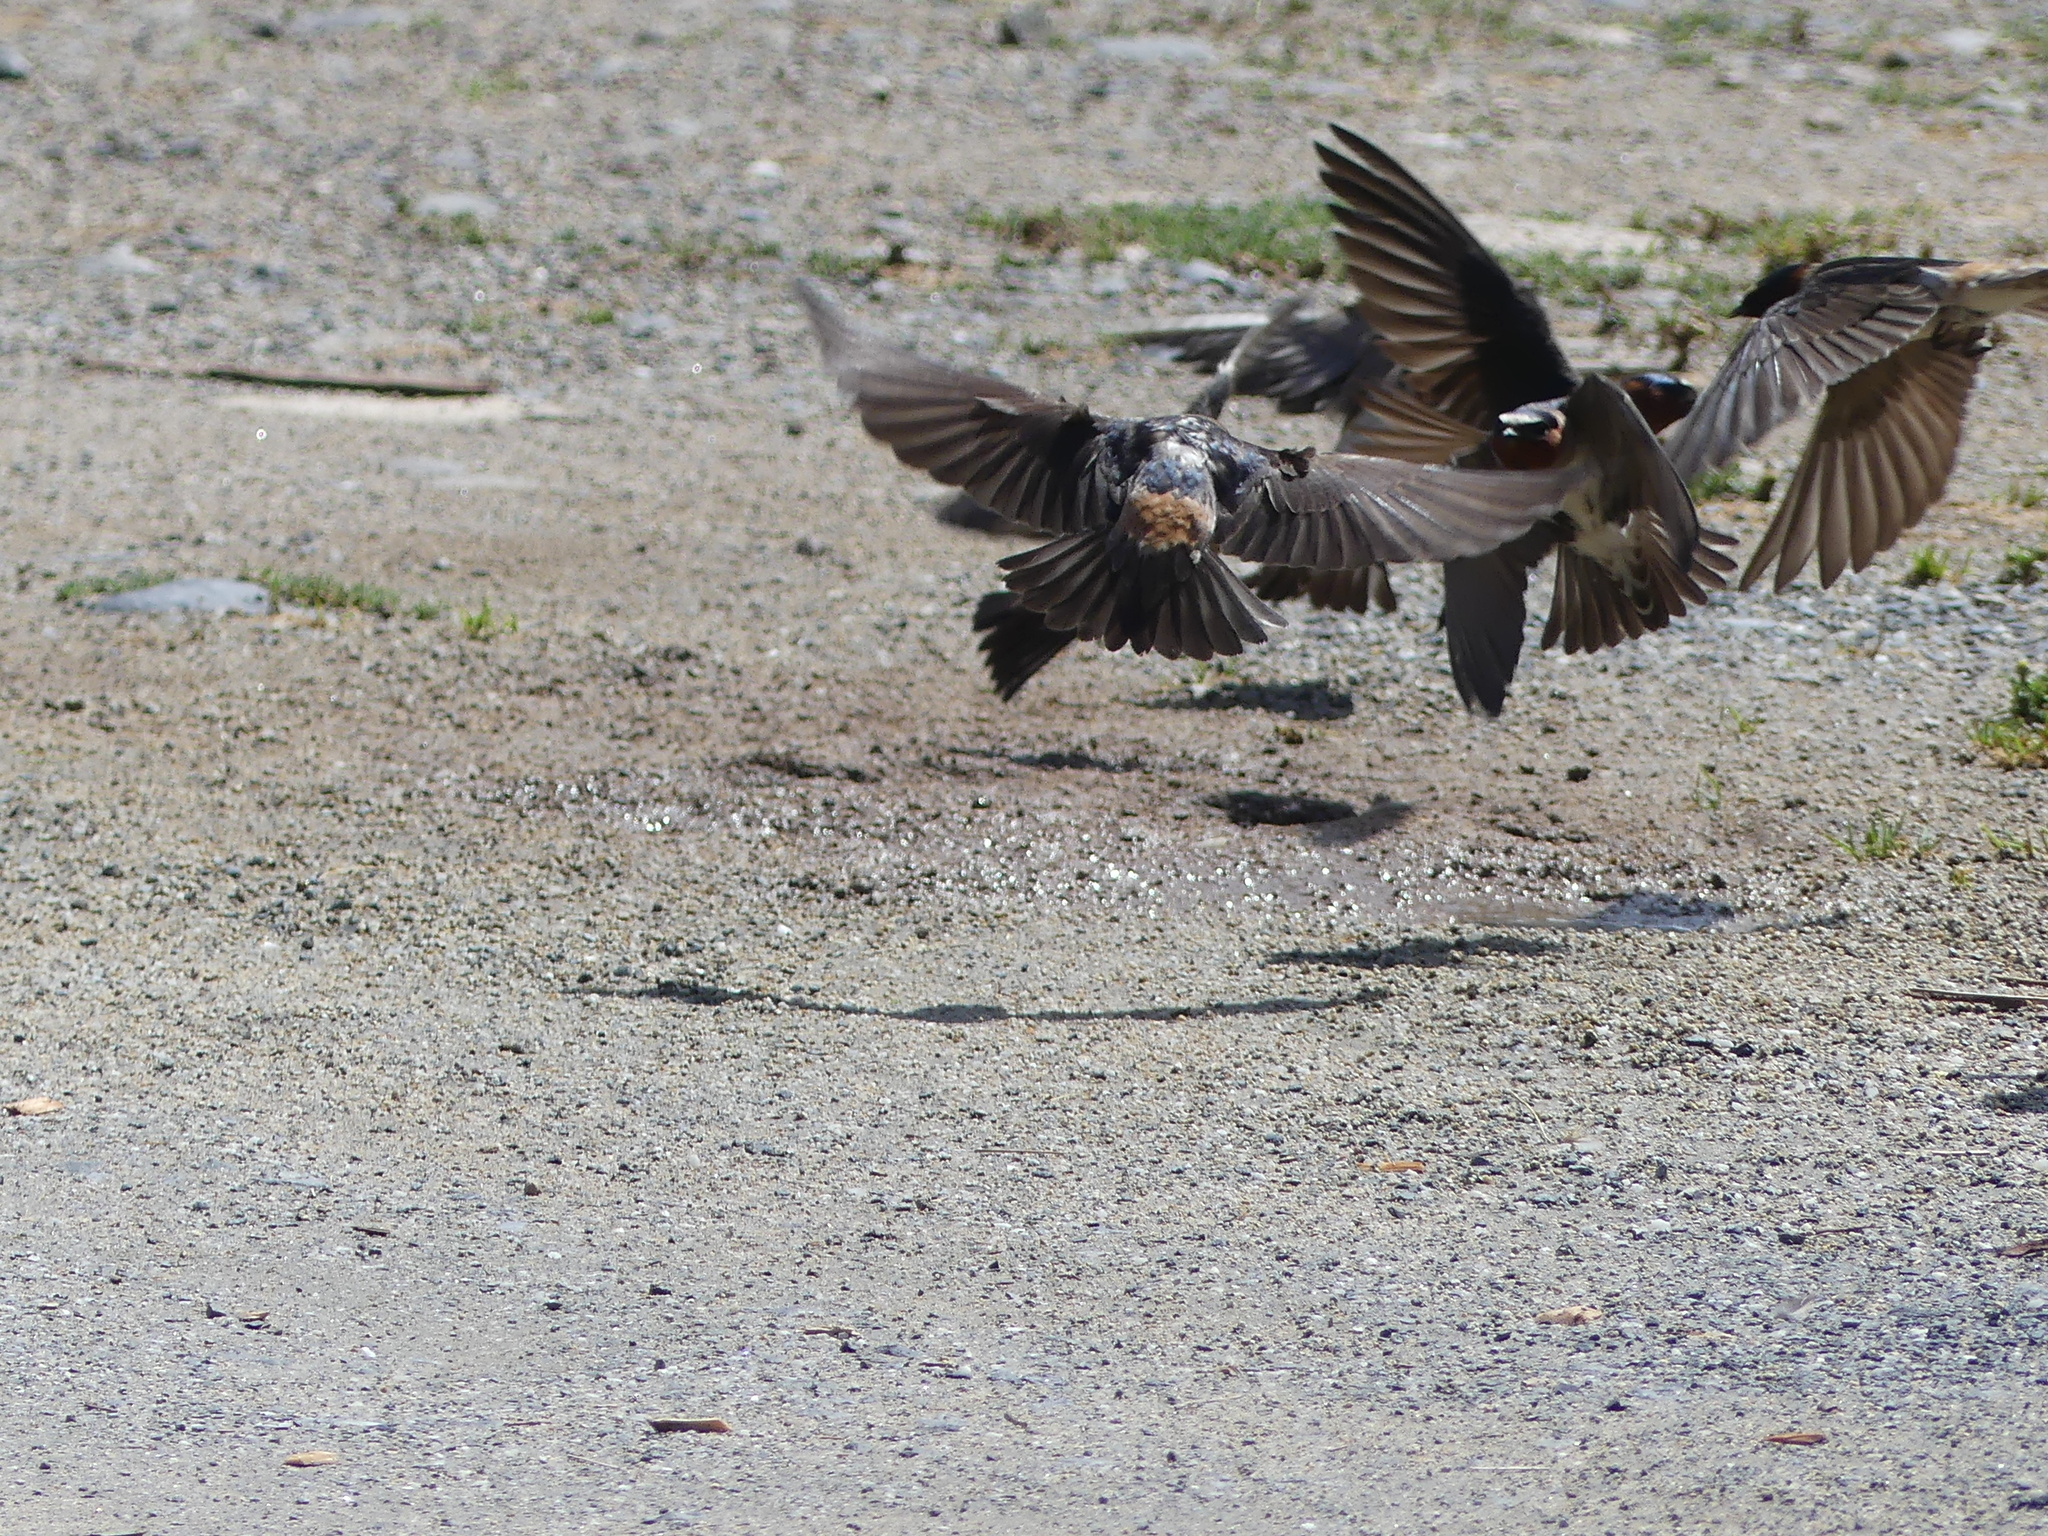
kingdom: Animalia
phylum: Chordata
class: Aves
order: Passeriformes
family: Hirundinidae
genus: Petrochelidon
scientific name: Petrochelidon pyrrhonota
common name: American cliff swallow
